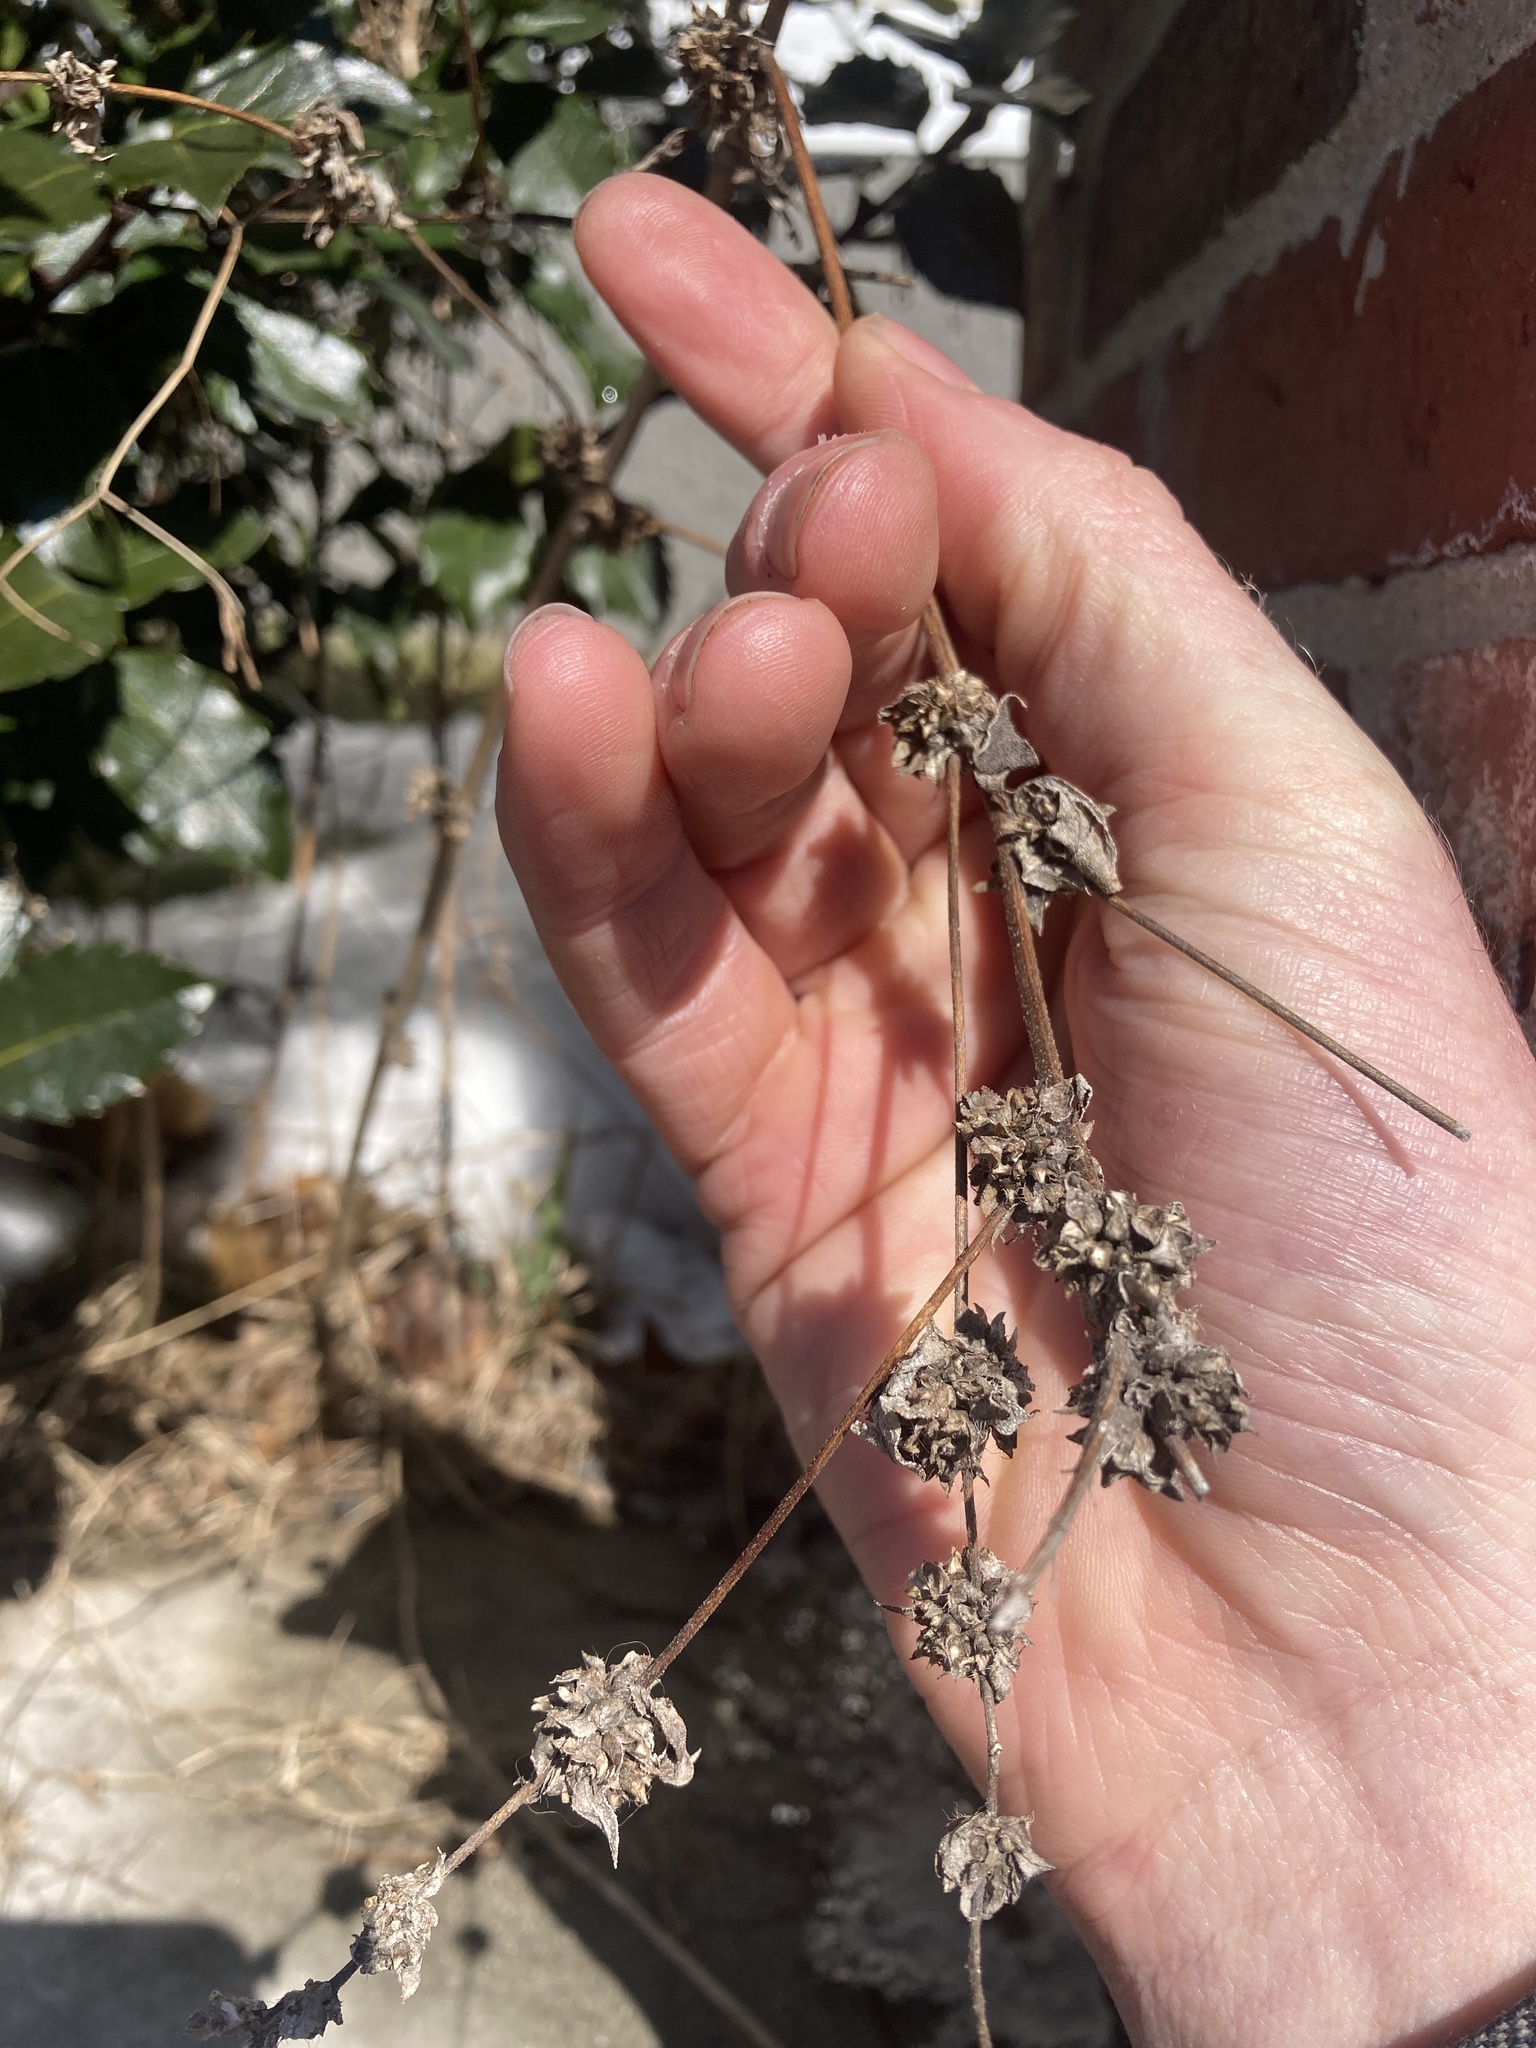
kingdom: Plantae
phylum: Tracheophyta
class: Magnoliopsida
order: Asterales
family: Asteraceae
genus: Cichorium
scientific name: Cichorium intybus
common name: Chicory
